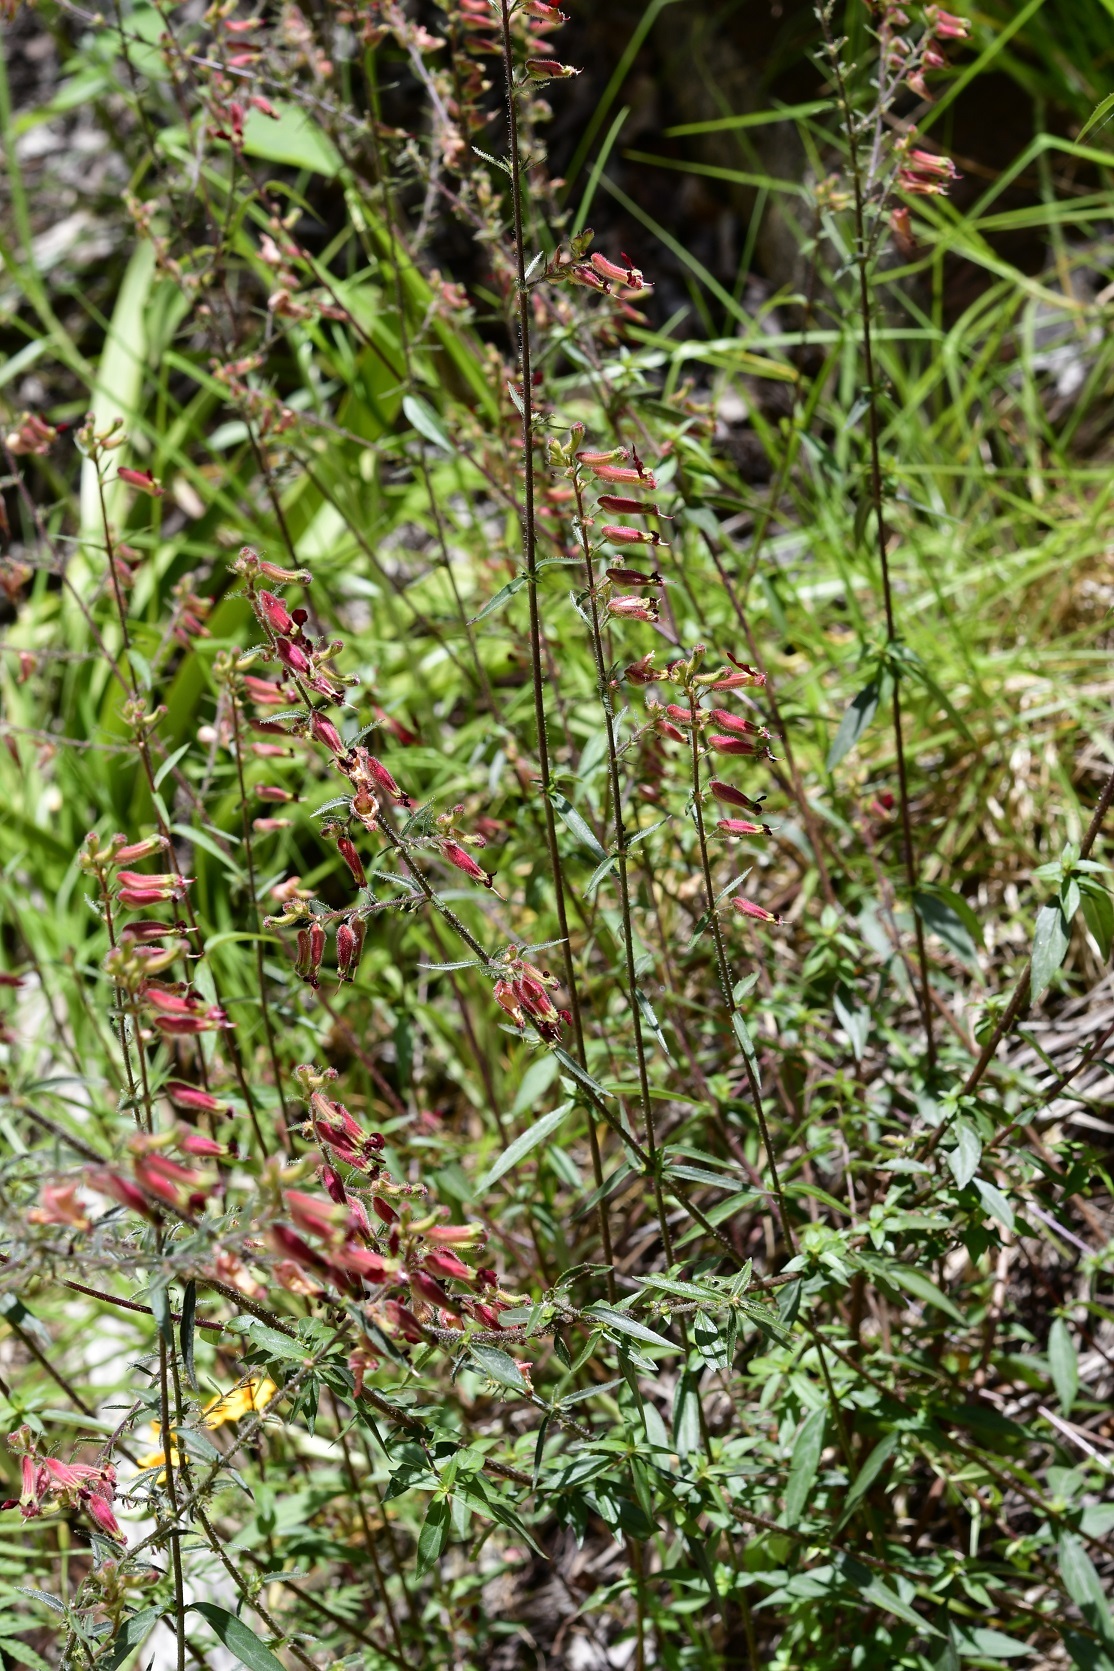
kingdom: Plantae
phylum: Tracheophyta
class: Magnoliopsida
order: Myrtales
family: Lythraceae
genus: Cuphea
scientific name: Cuphea hookeriana
